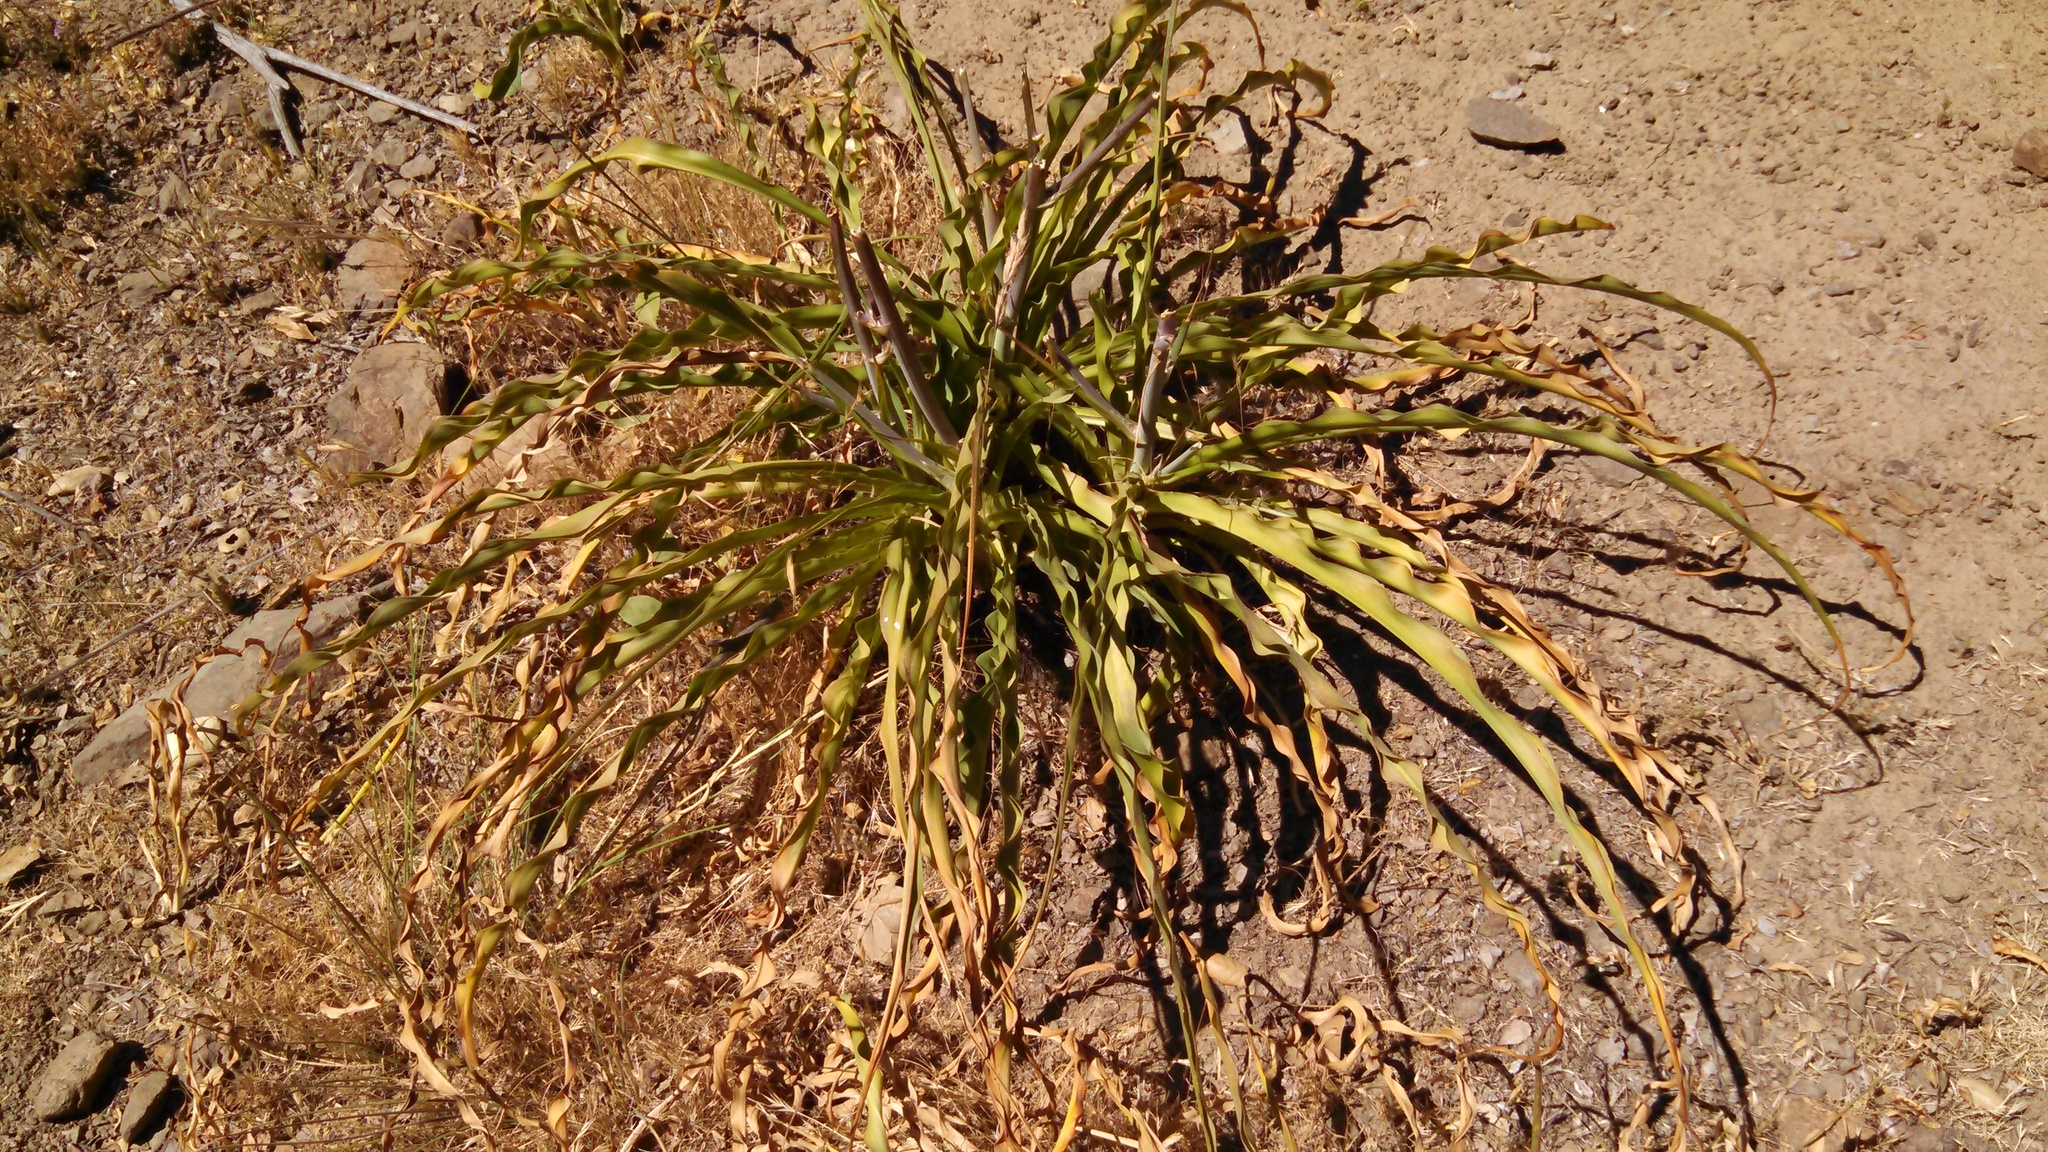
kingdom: Plantae
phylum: Tracheophyta
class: Liliopsida
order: Asparagales
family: Asparagaceae
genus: Chlorogalum
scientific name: Chlorogalum pomeridianum
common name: Amole
